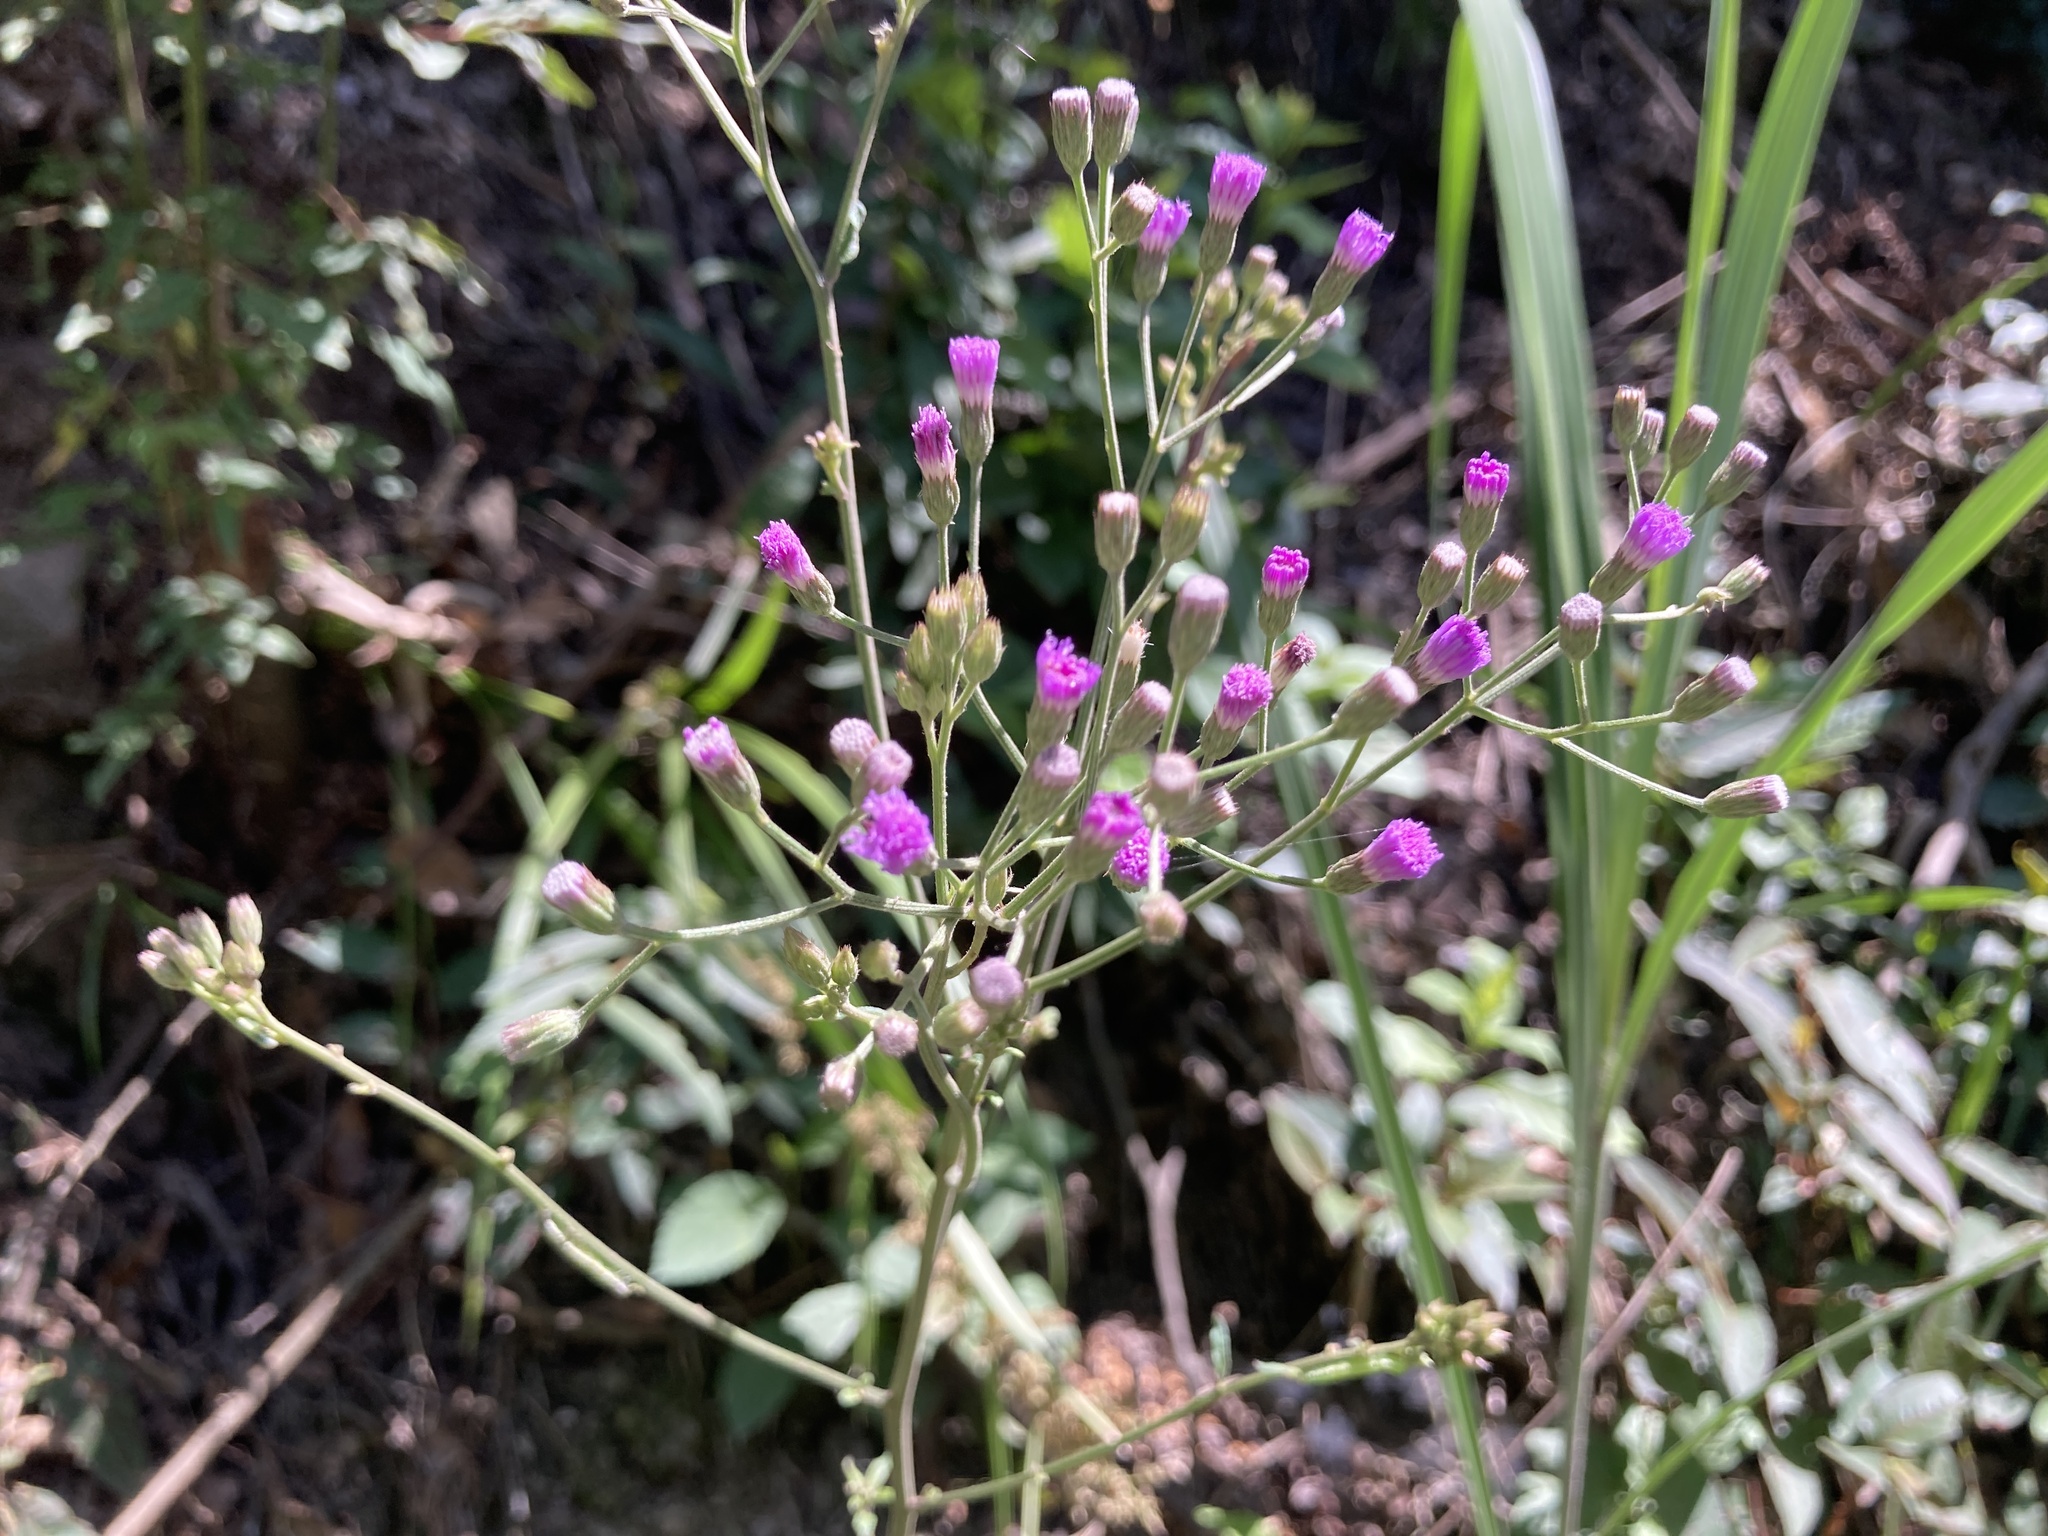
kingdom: Plantae
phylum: Tracheophyta
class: Magnoliopsida
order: Asterales
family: Asteraceae
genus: Cyanthillium
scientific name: Cyanthillium cinereum
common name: Little ironweed
